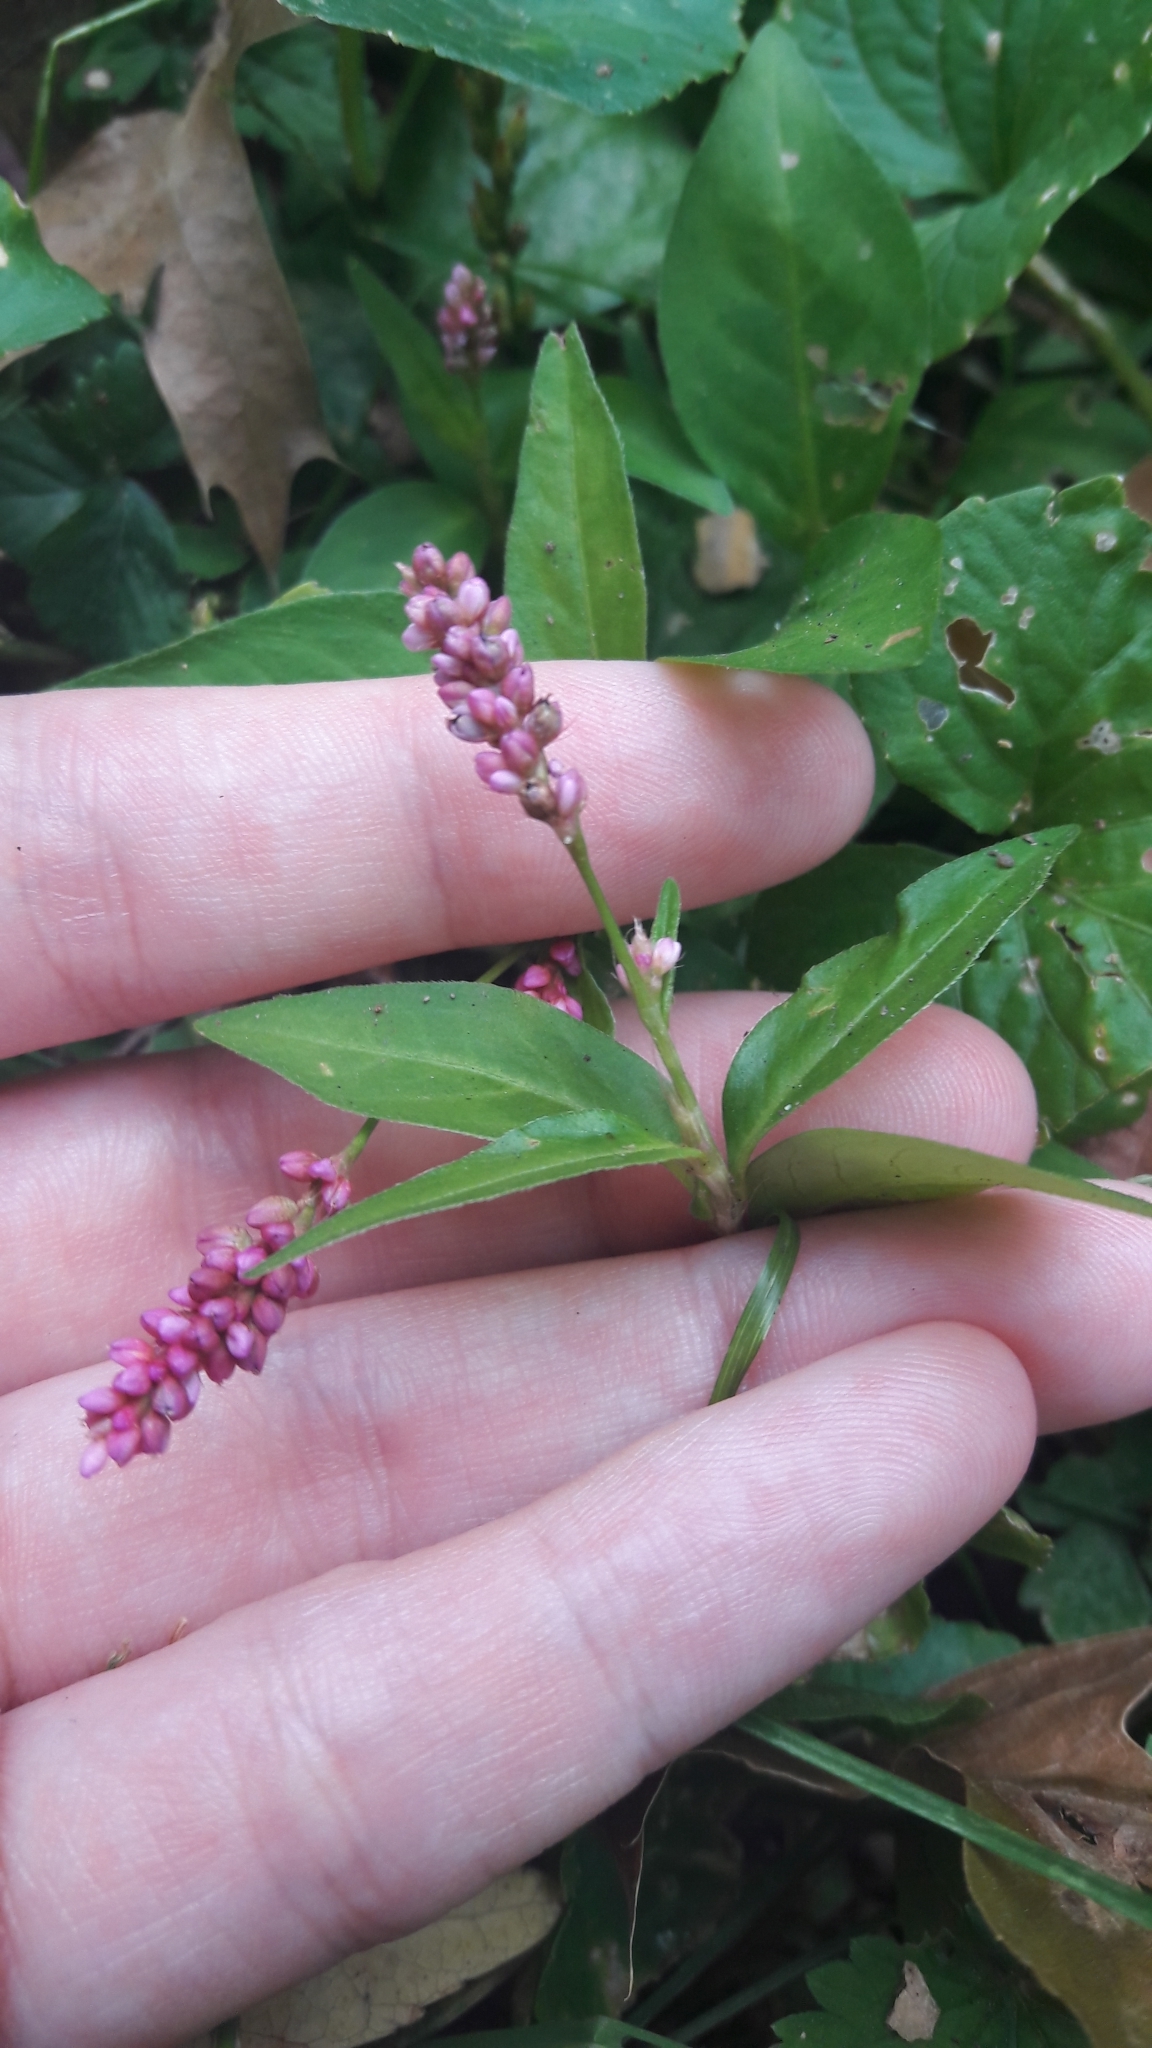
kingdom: Plantae
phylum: Tracheophyta
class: Magnoliopsida
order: Caryophyllales
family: Polygonaceae
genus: Persicaria
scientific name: Persicaria longiseta
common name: Bristly lady's-thumb
